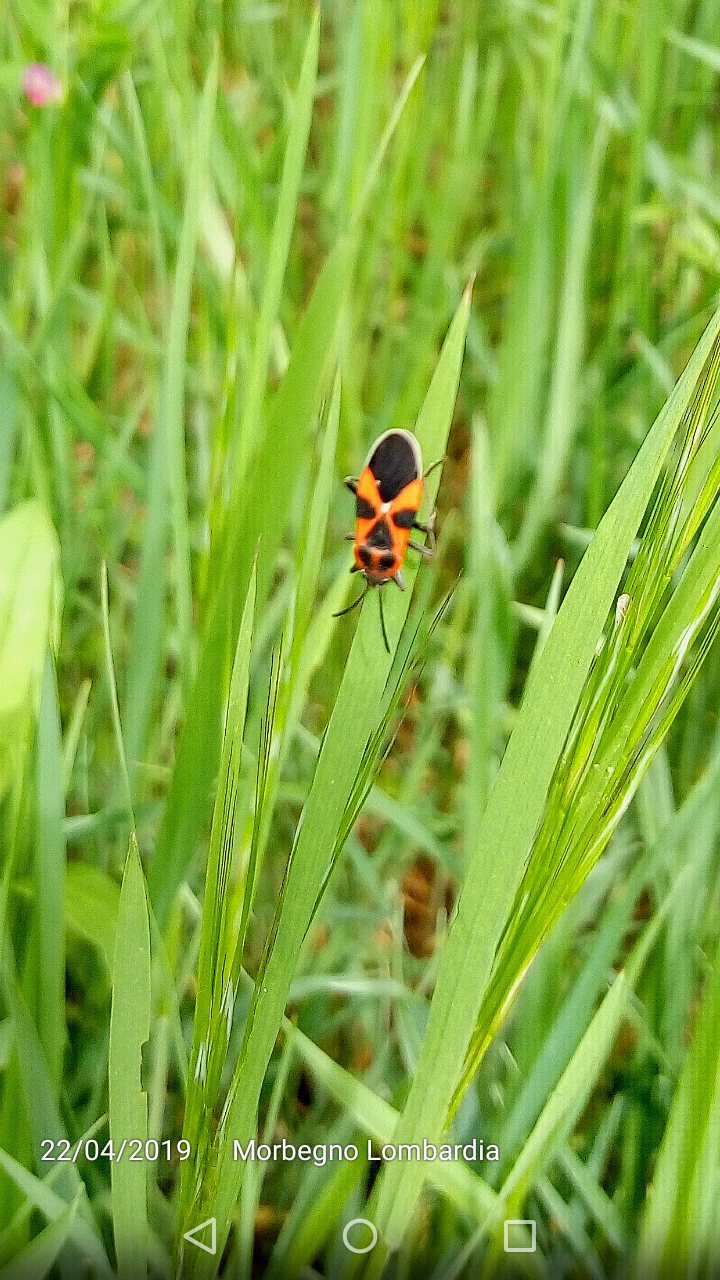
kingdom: Animalia
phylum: Arthropoda
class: Insecta
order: Hemiptera
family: Lygaeidae
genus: Tropidothorax
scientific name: Tropidothorax leucopterus
